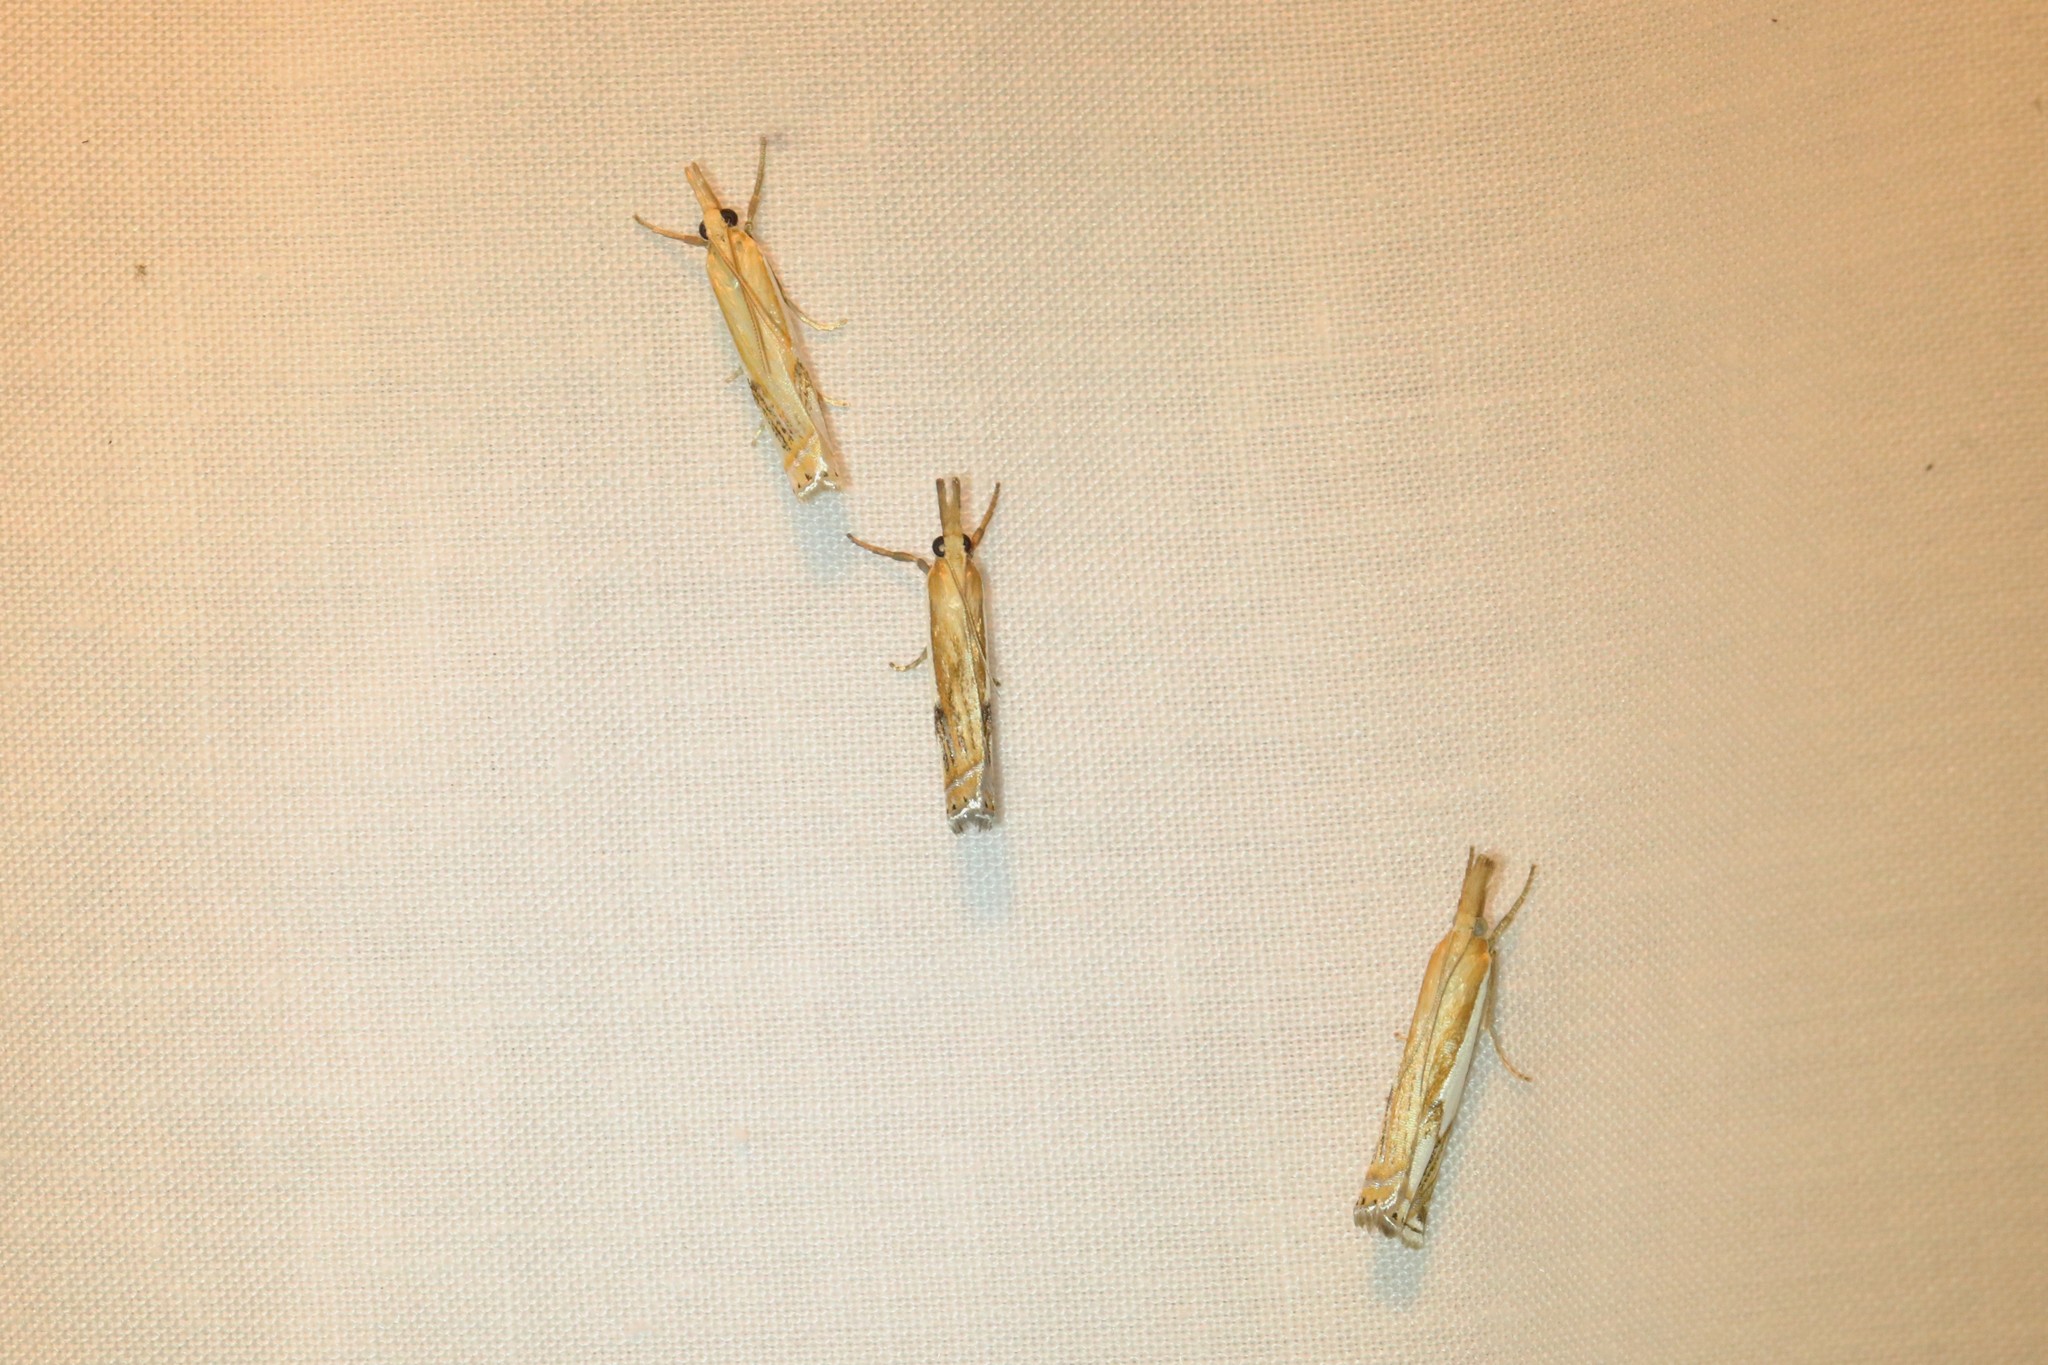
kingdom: Animalia
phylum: Arthropoda
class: Insecta
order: Lepidoptera
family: Crambidae
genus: Crambus
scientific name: Crambus agitatellus
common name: Double-banded grass-veneer
